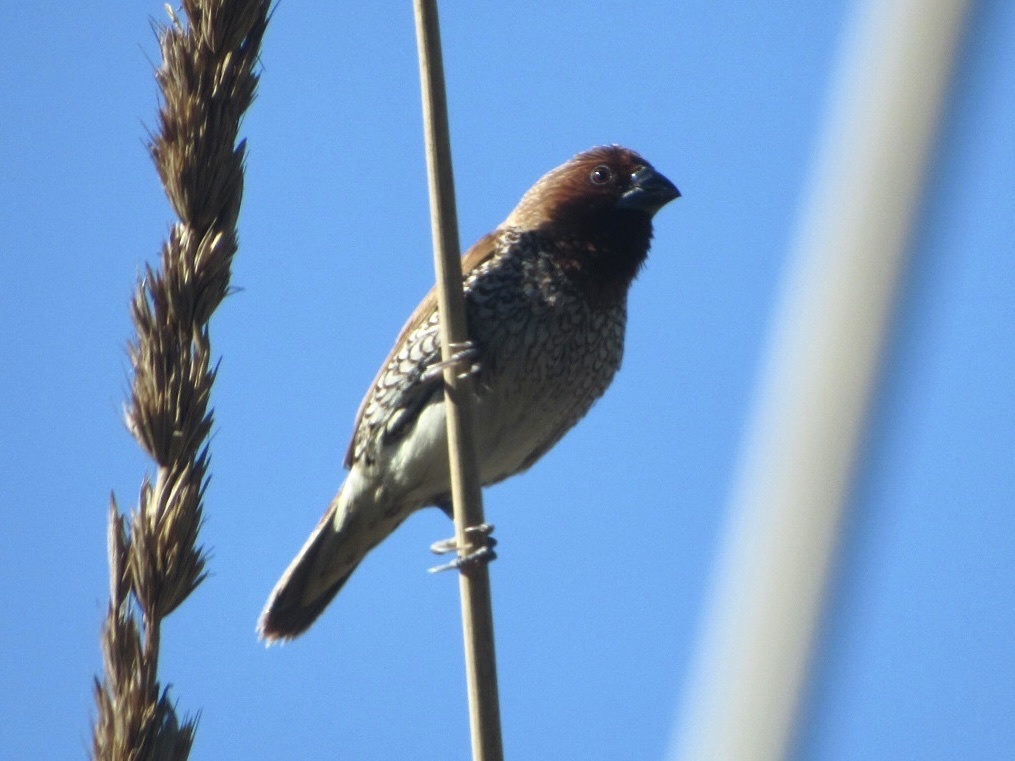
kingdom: Animalia
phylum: Chordata
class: Aves
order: Passeriformes
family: Estrildidae
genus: Lonchura
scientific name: Lonchura punctulata
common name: Scaly-breasted munia
